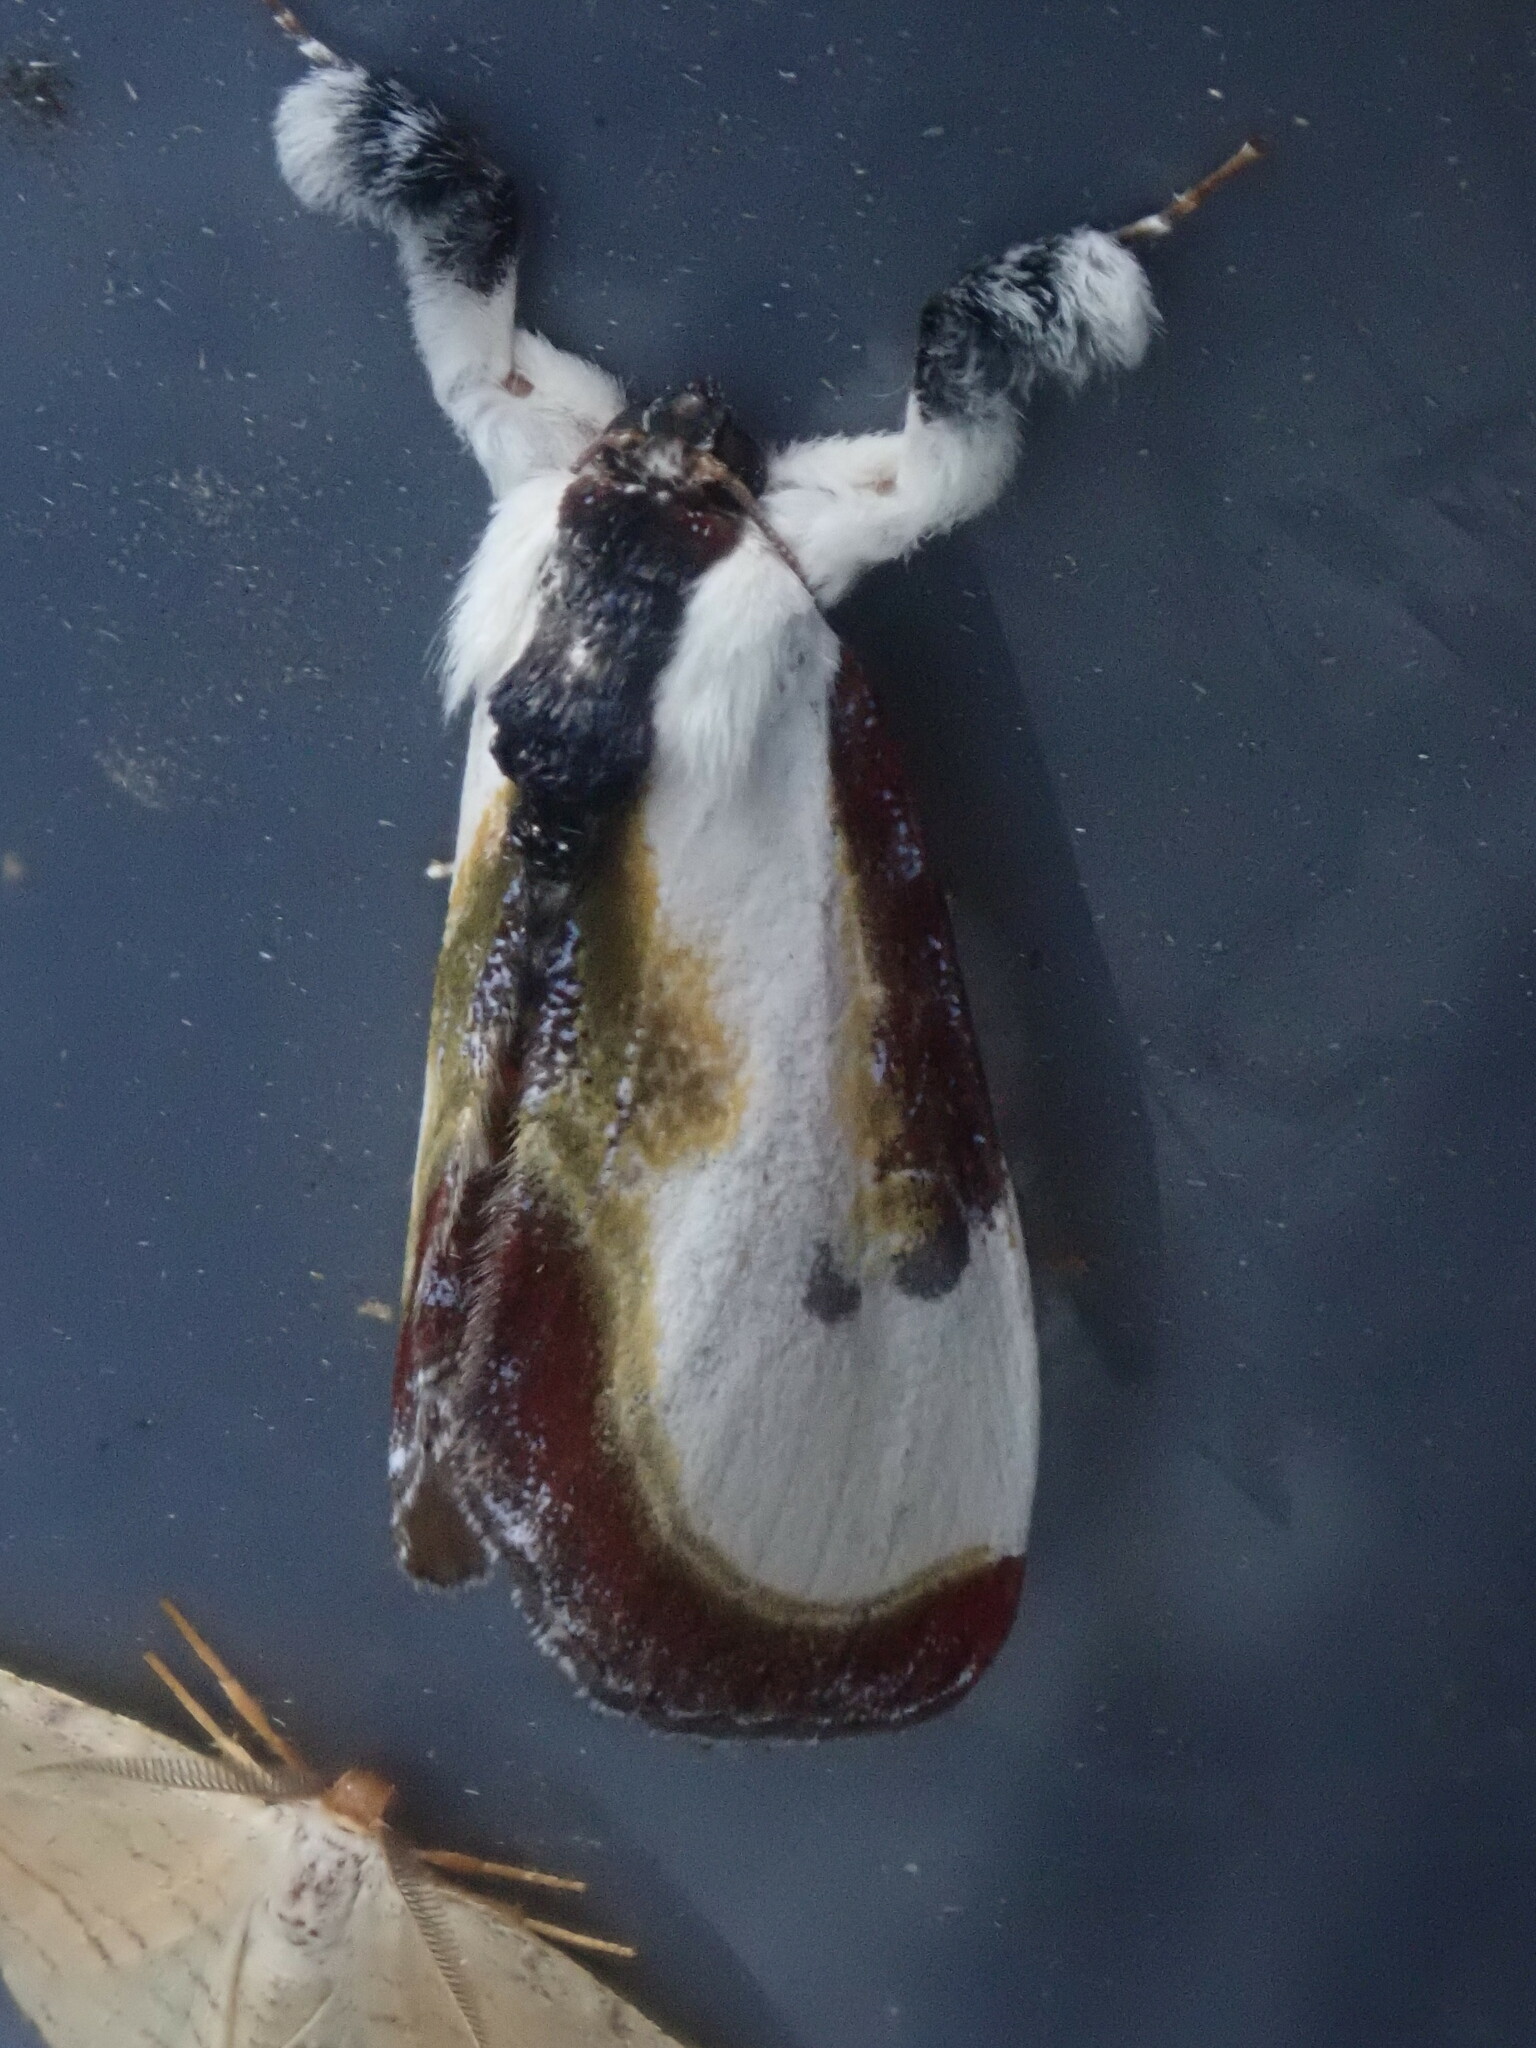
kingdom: Animalia
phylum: Arthropoda
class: Insecta
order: Lepidoptera
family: Noctuidae
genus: Eudryas
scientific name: Eudryas grata
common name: Beautiful wood-nymph
